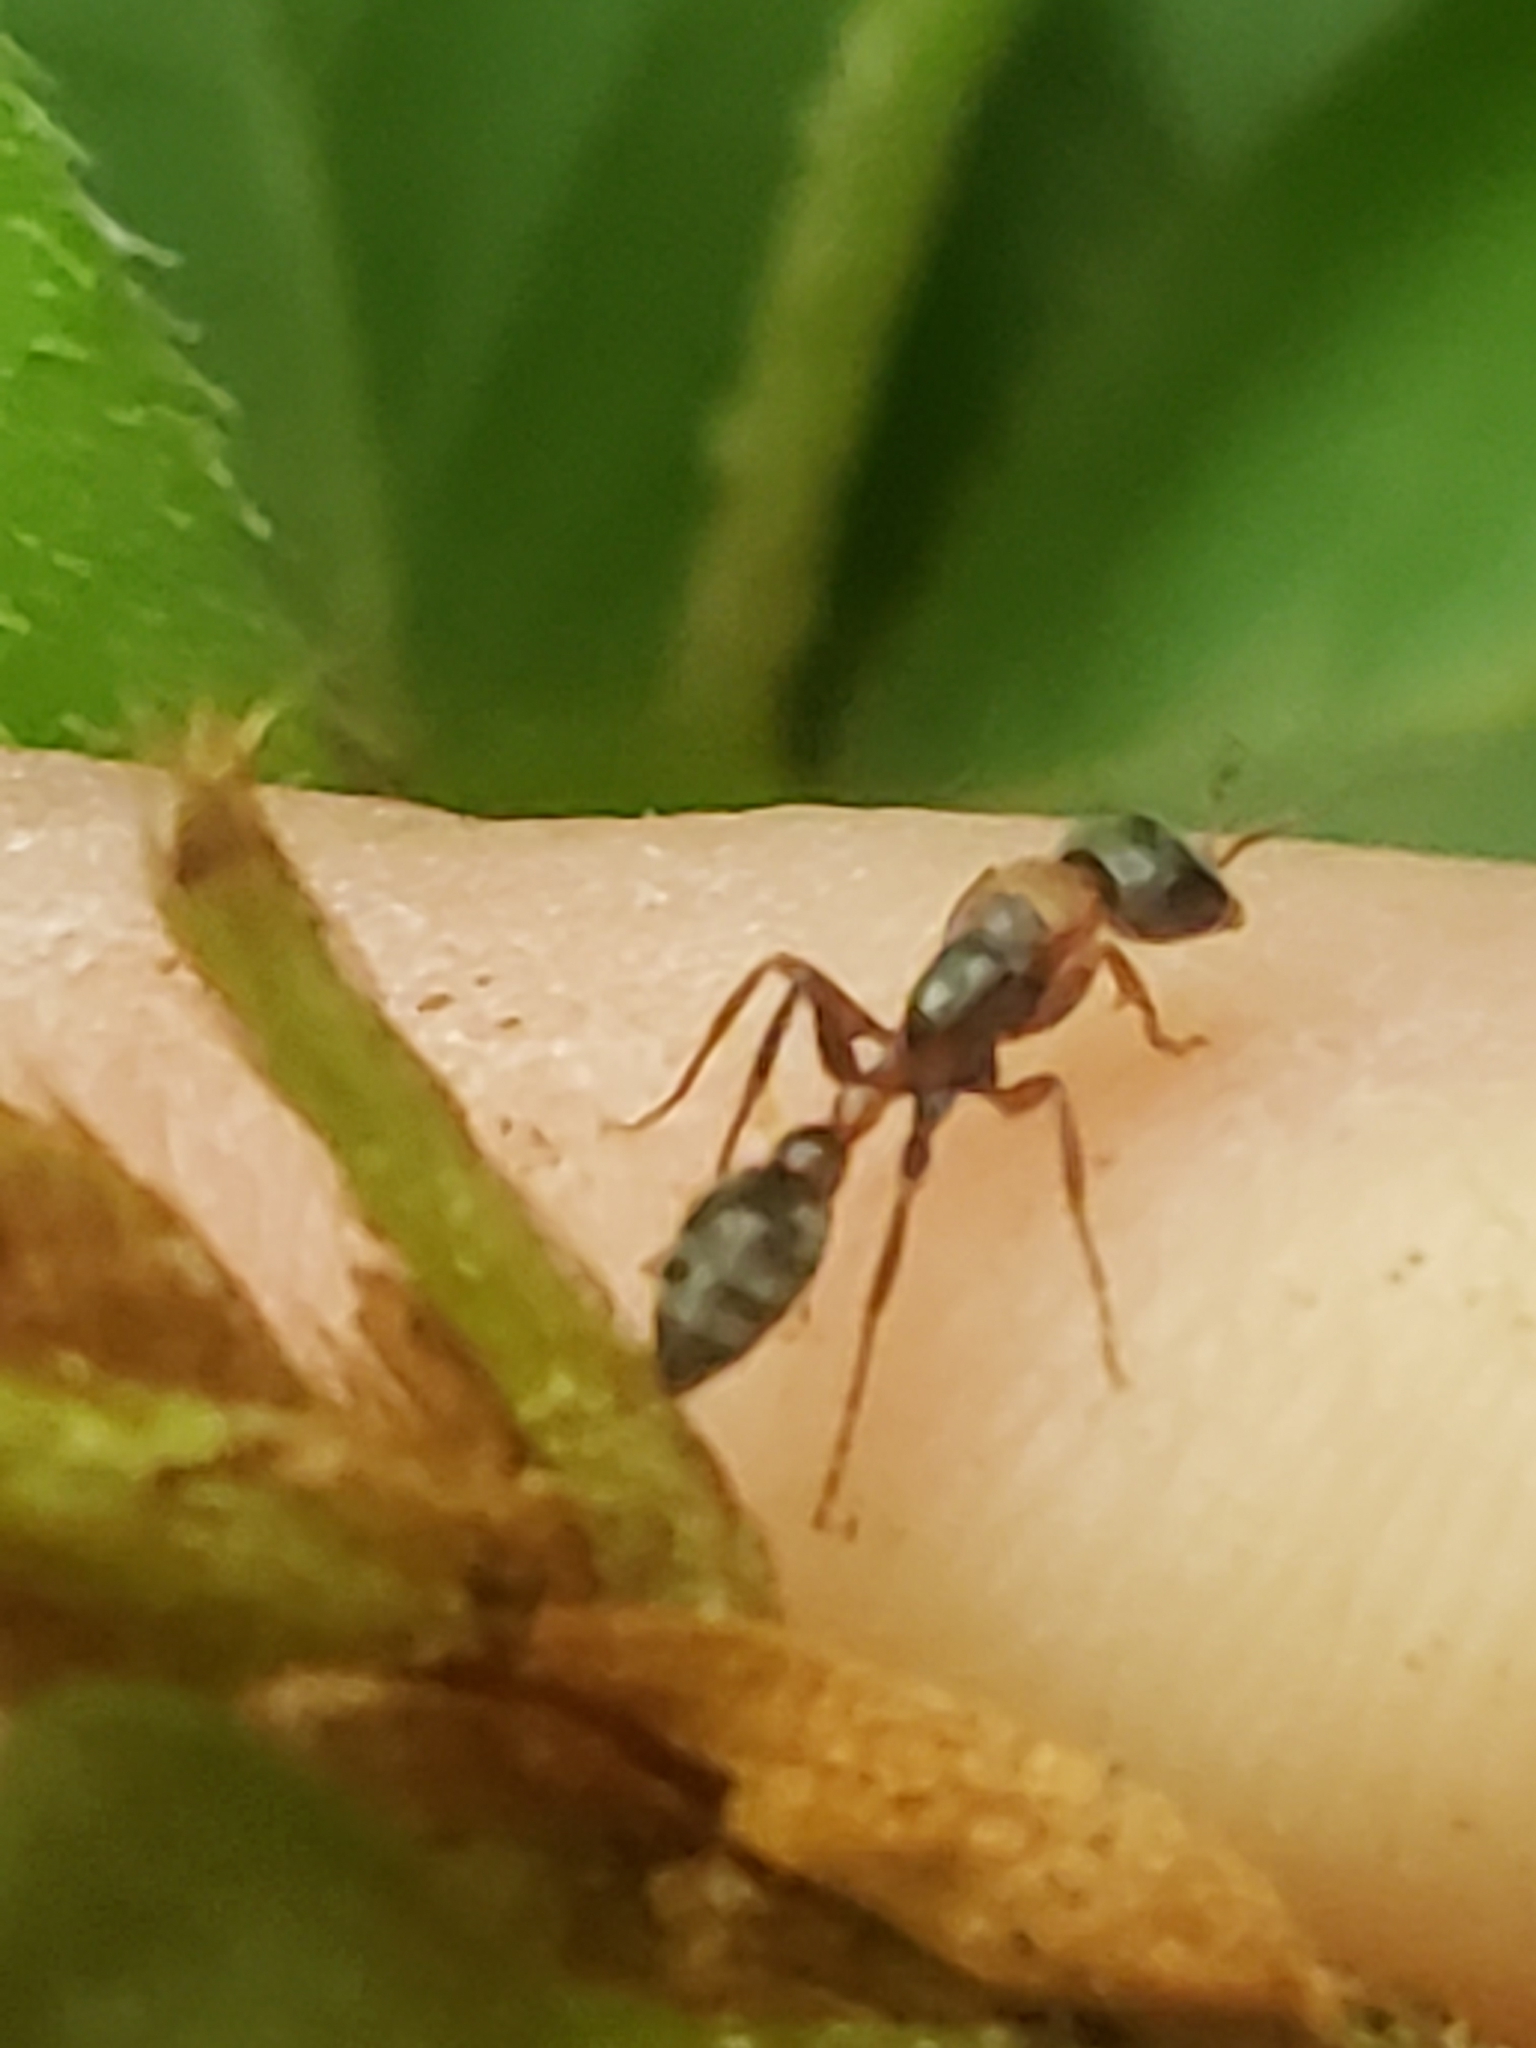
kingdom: Animalia
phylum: Arthropoda
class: Insecta
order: Hymenoptera
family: Formicidae
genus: Pseudomyrmex
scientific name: Pseudomyrmex gracilis
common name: Graceful twig ant
